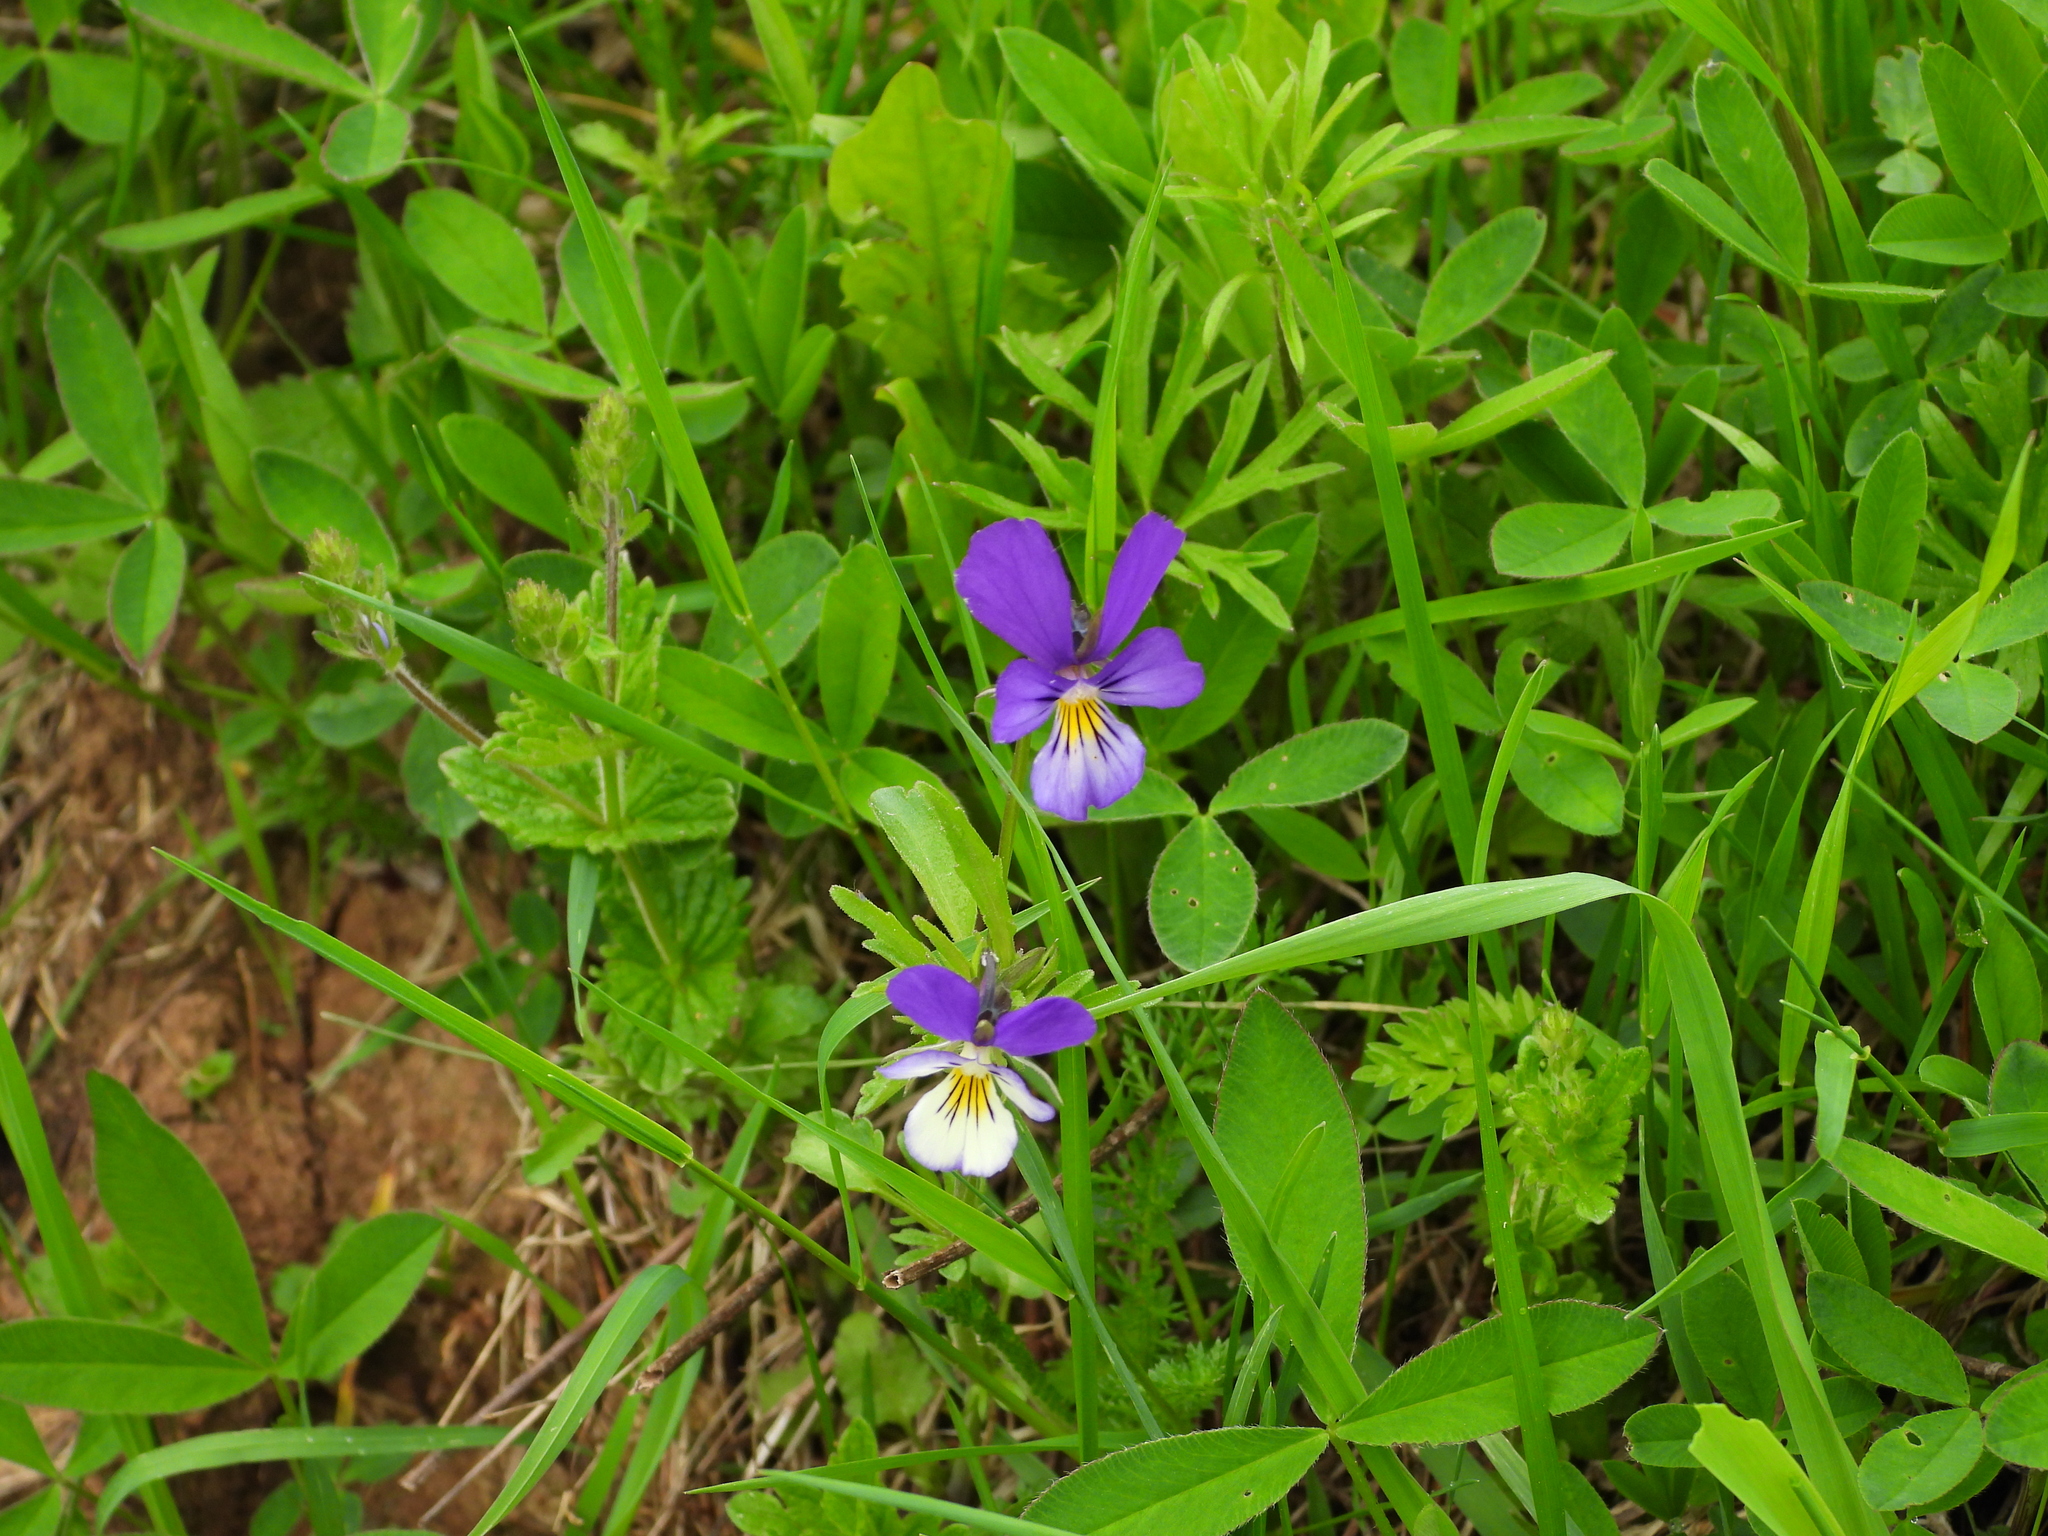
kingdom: Plantae
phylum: Tracheophyta
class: Magnoliopsida
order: Malpighiales
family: Violaceae
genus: Viola
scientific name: Viola tricolor
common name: Pansy
